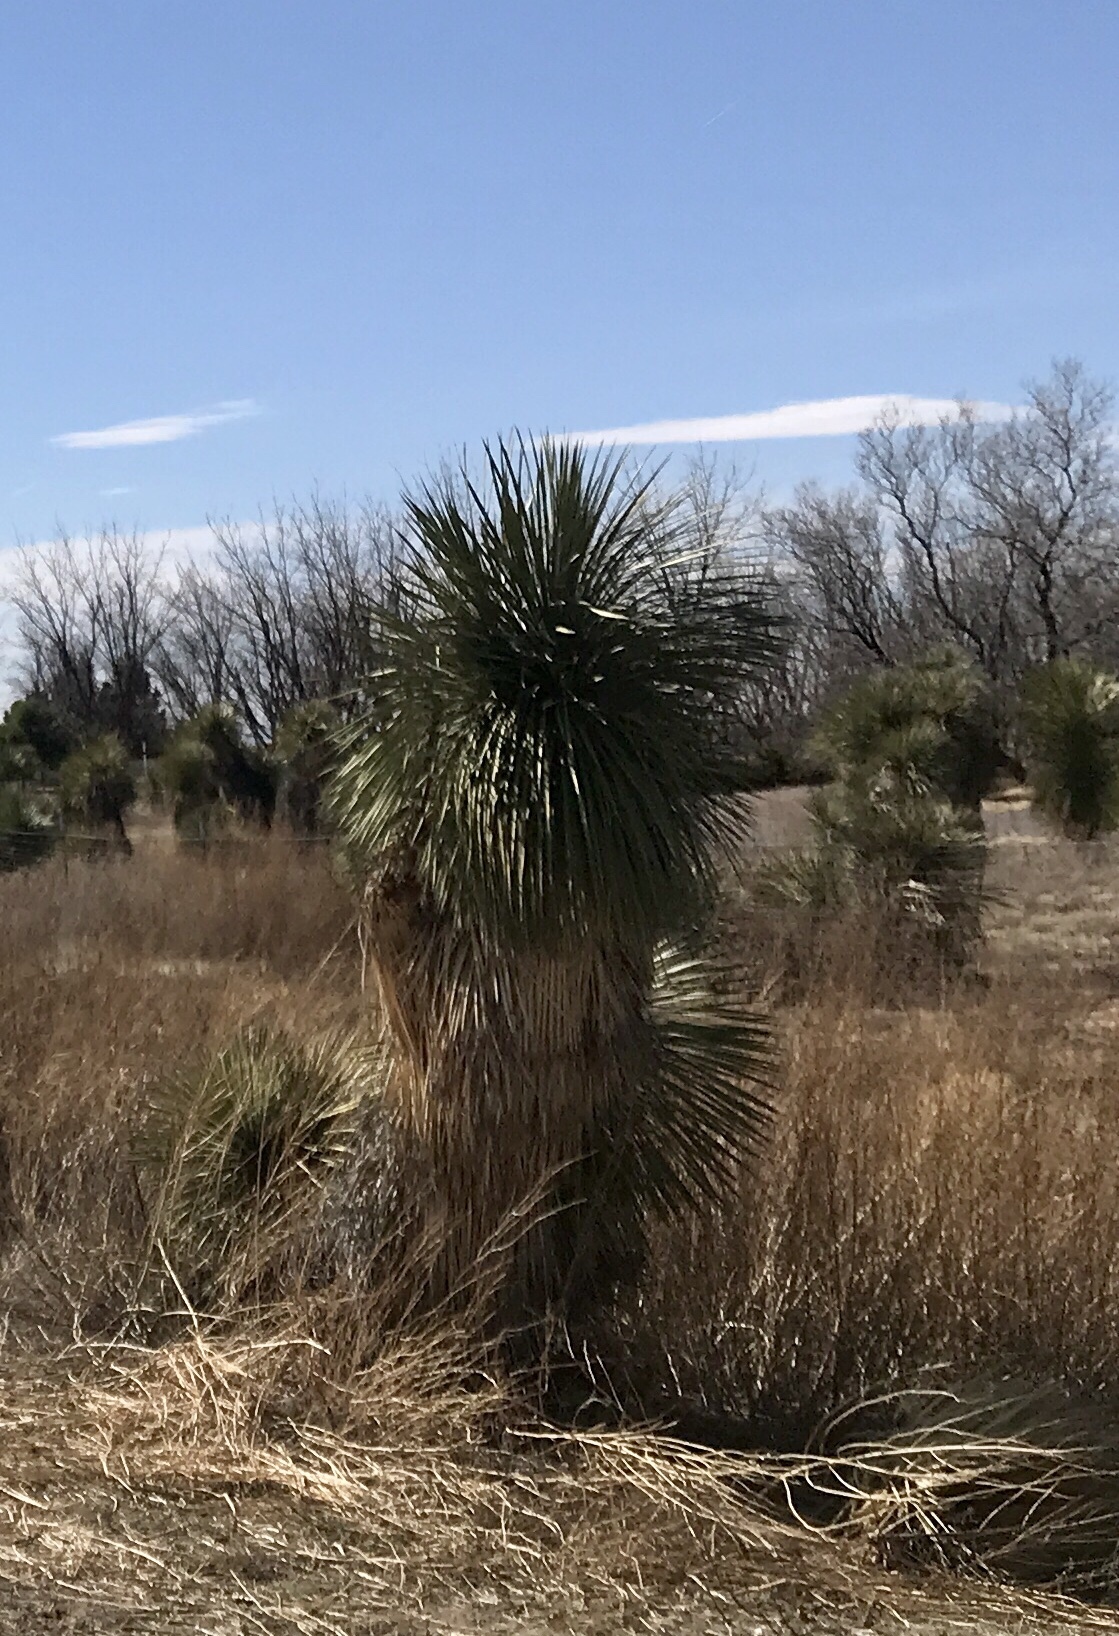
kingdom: Plantae
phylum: Tracheophyta
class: Liliopsida
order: Asparagales
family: Asparagaceae
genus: Yucca
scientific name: Yucca elata
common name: Palmella
